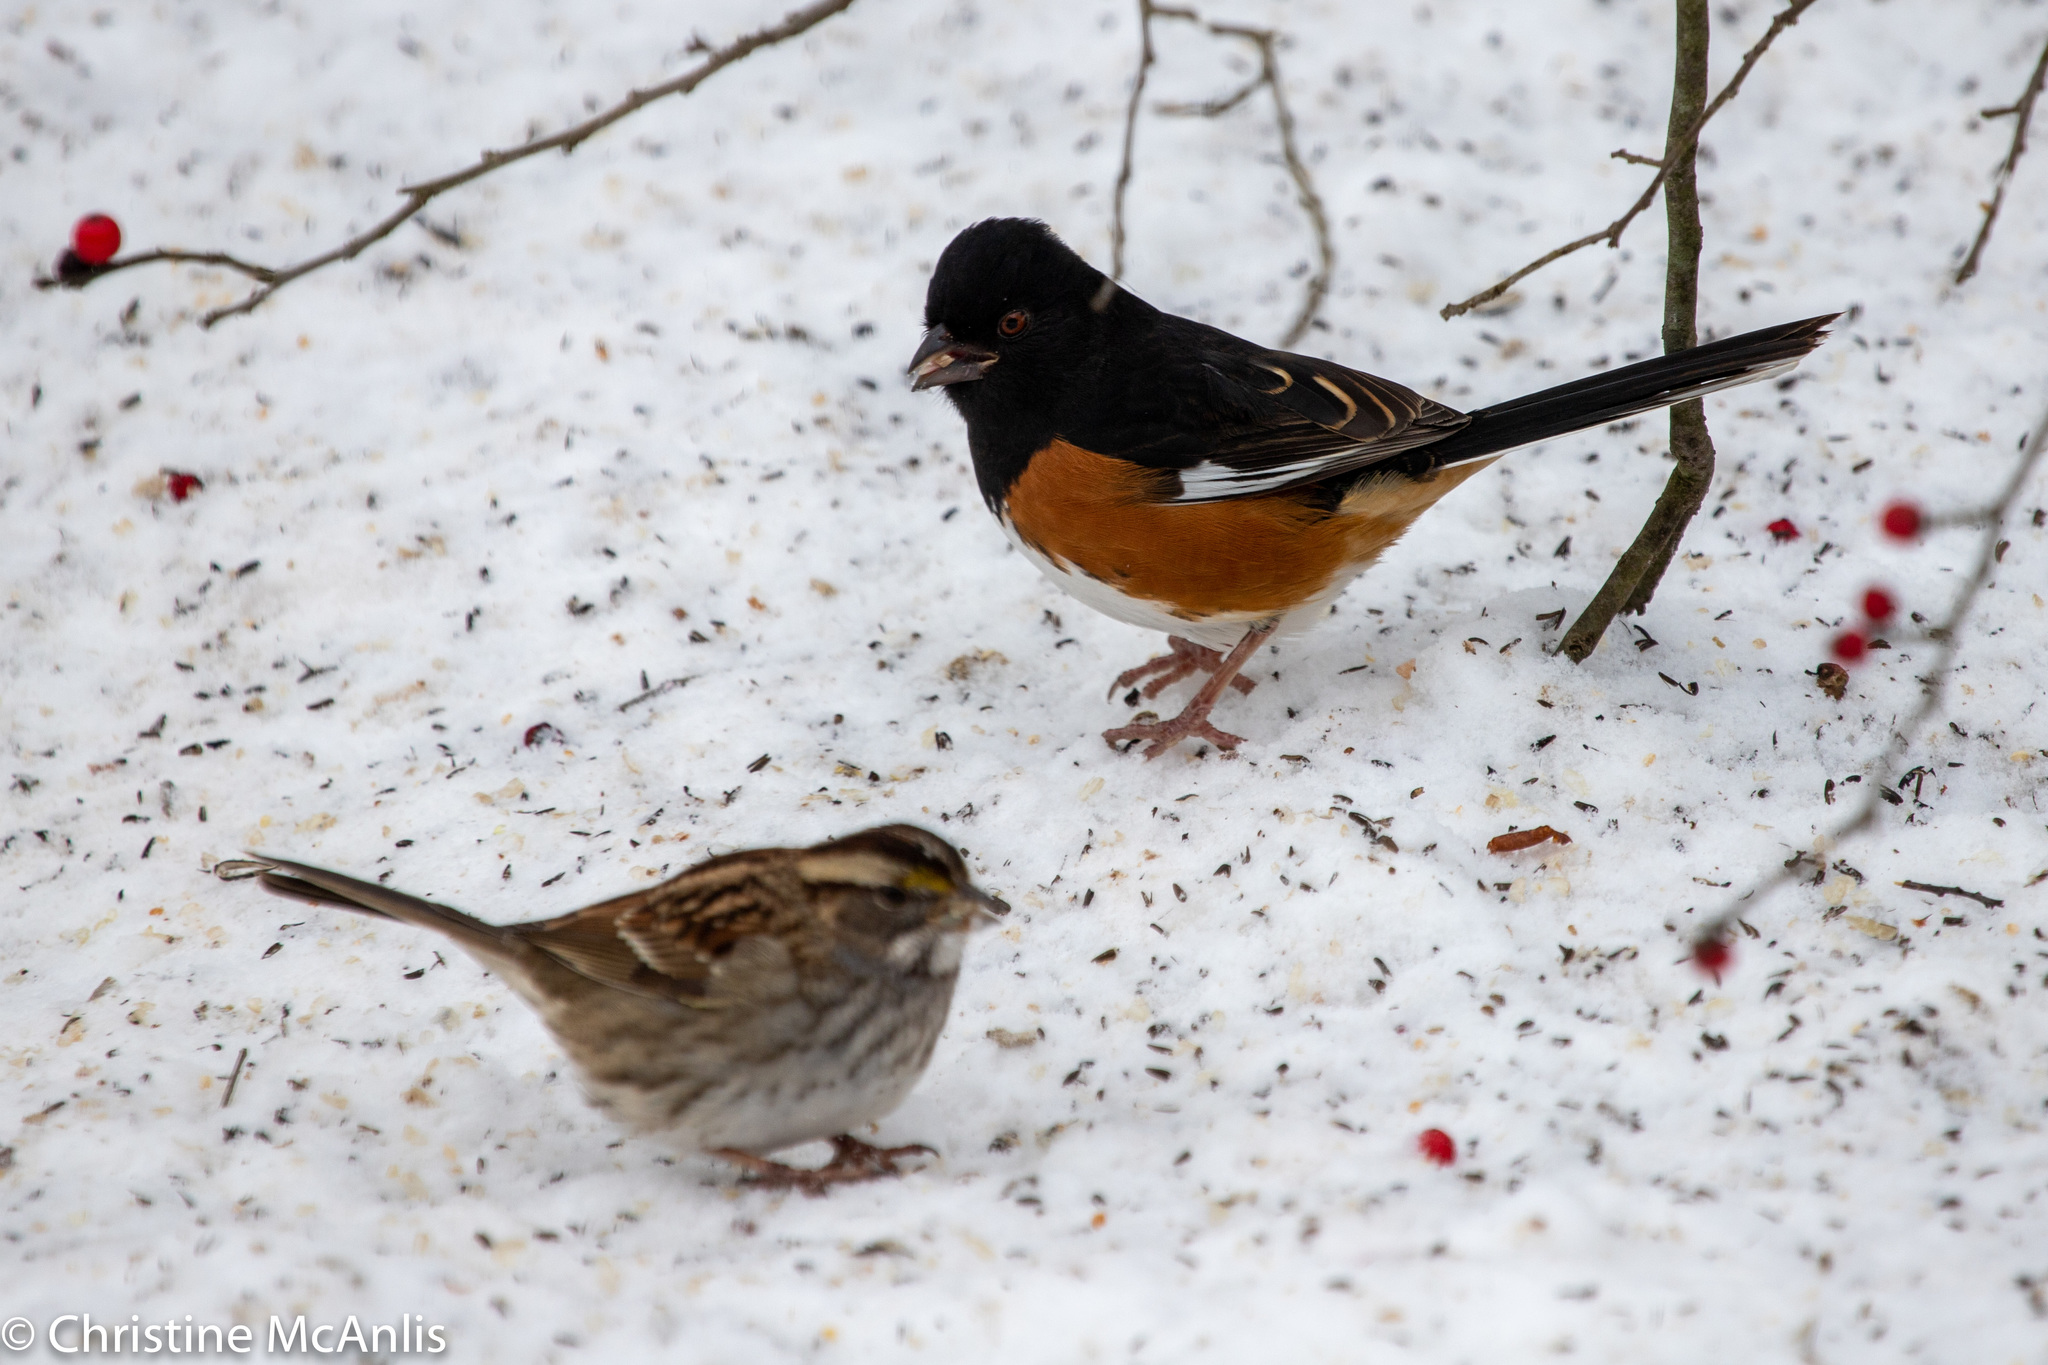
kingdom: Animalia
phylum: Chordata
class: Aves
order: Passeriformes
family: Passerellidae
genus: Zonotrichia
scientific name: Zonotrichia albicollis
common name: White-throated sparrow
